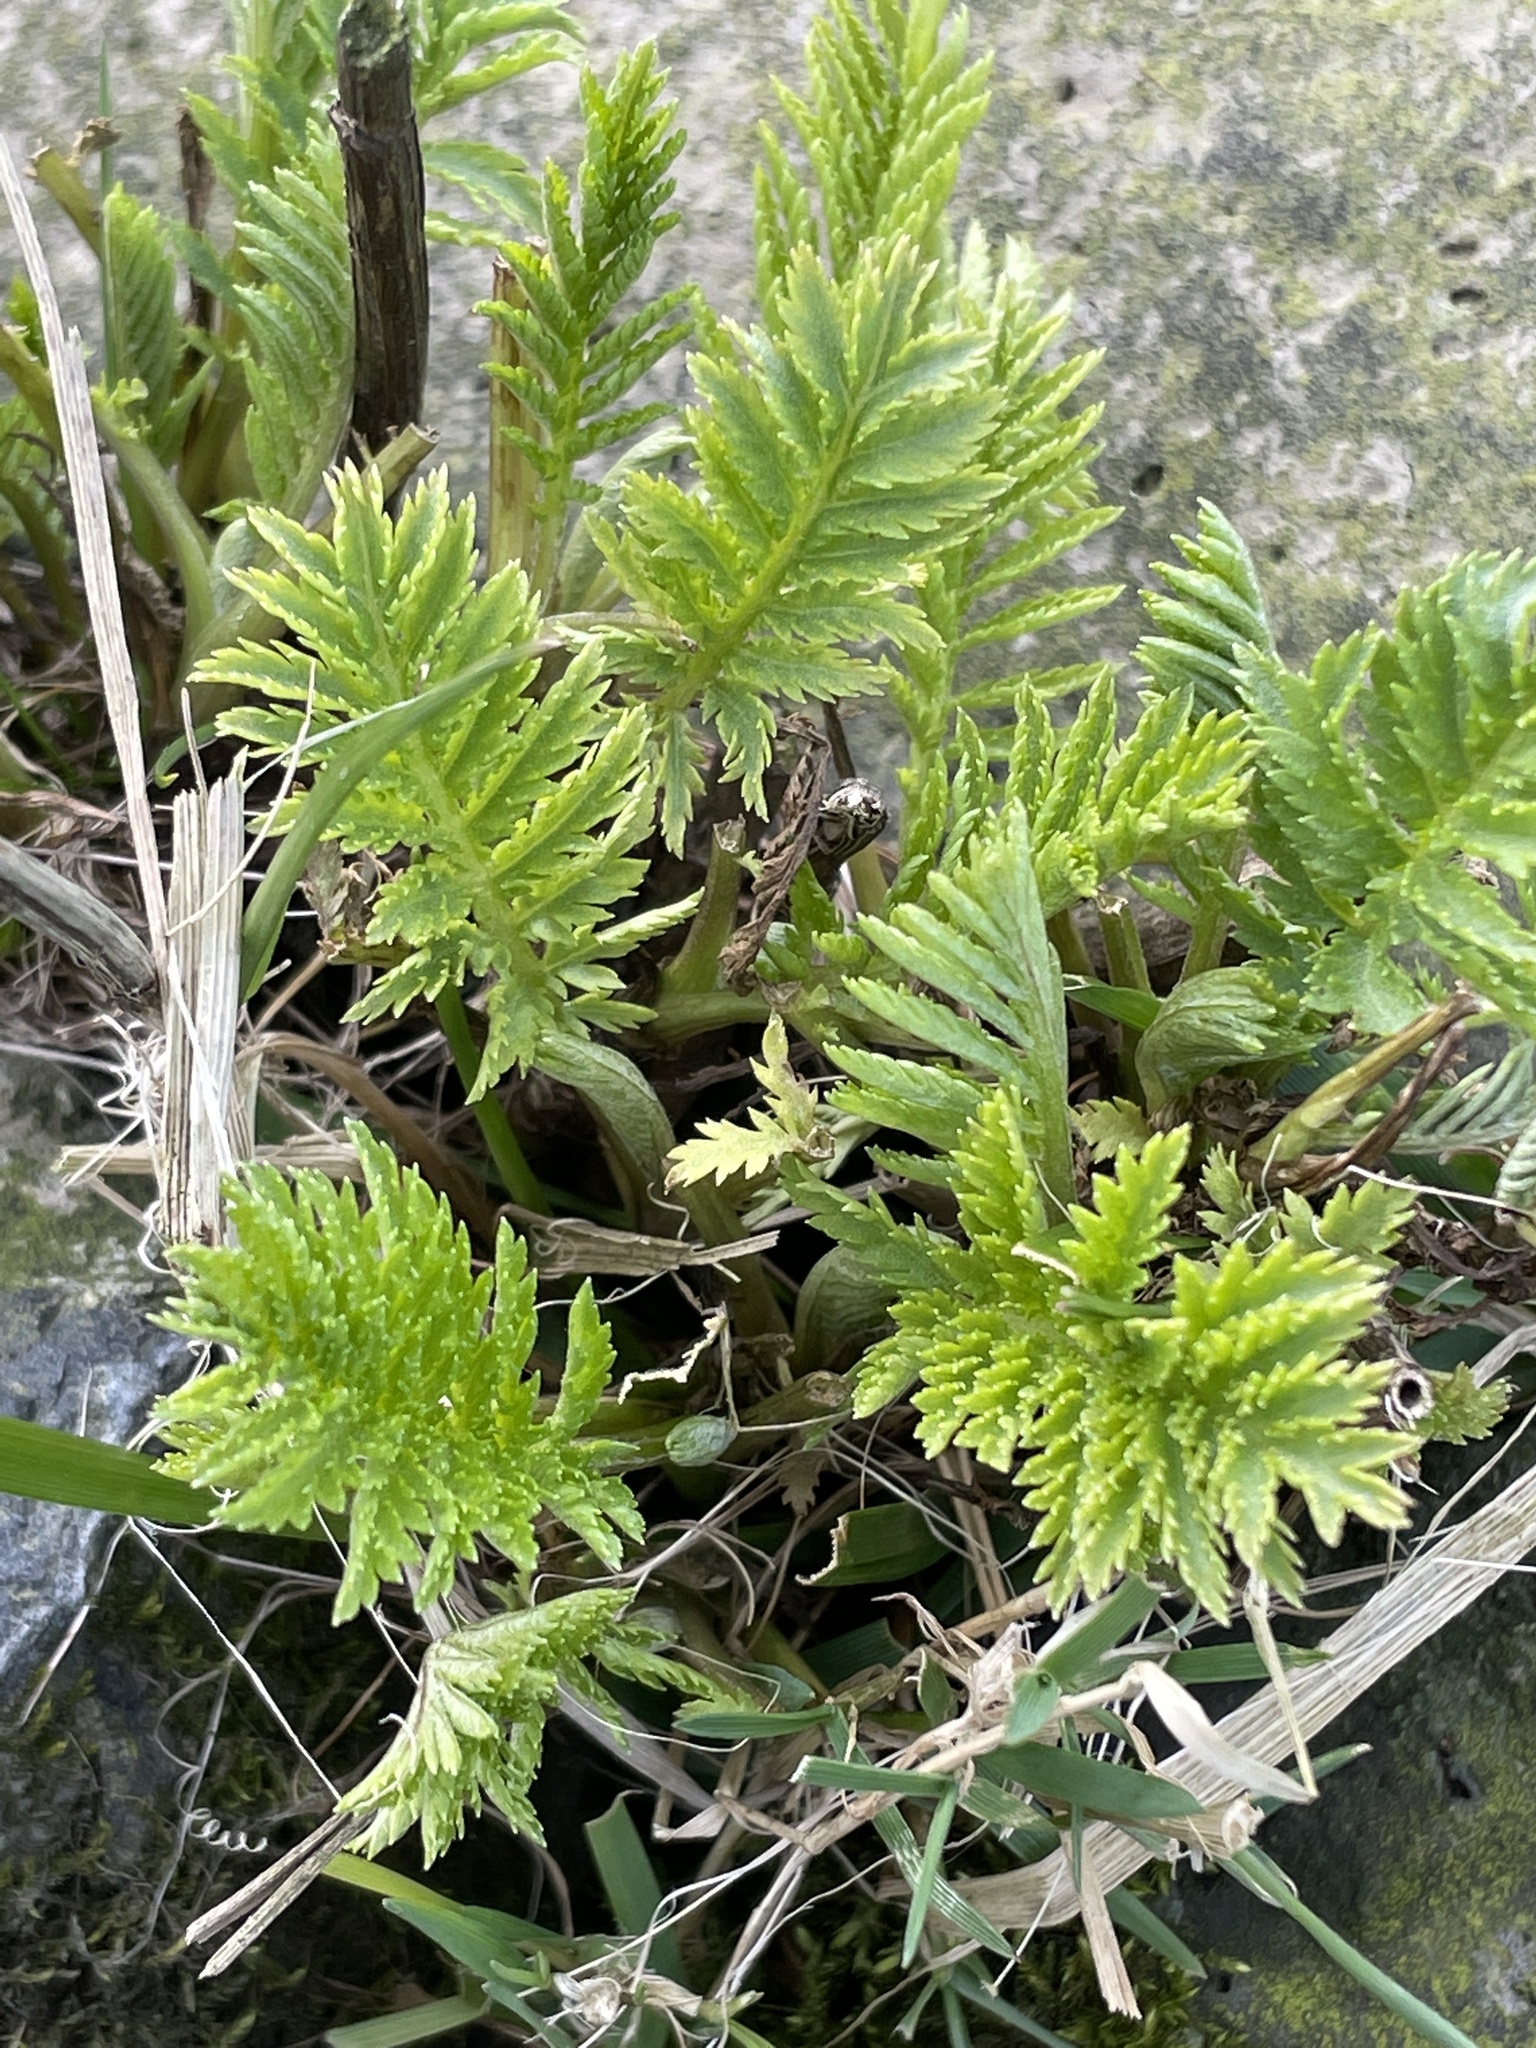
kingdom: Plantae
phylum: Tracheophyta
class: Magnoliopsida
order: Asterales
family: Asteraceae
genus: Tanacetum
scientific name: Tanacetum vulgare
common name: Common tansy
